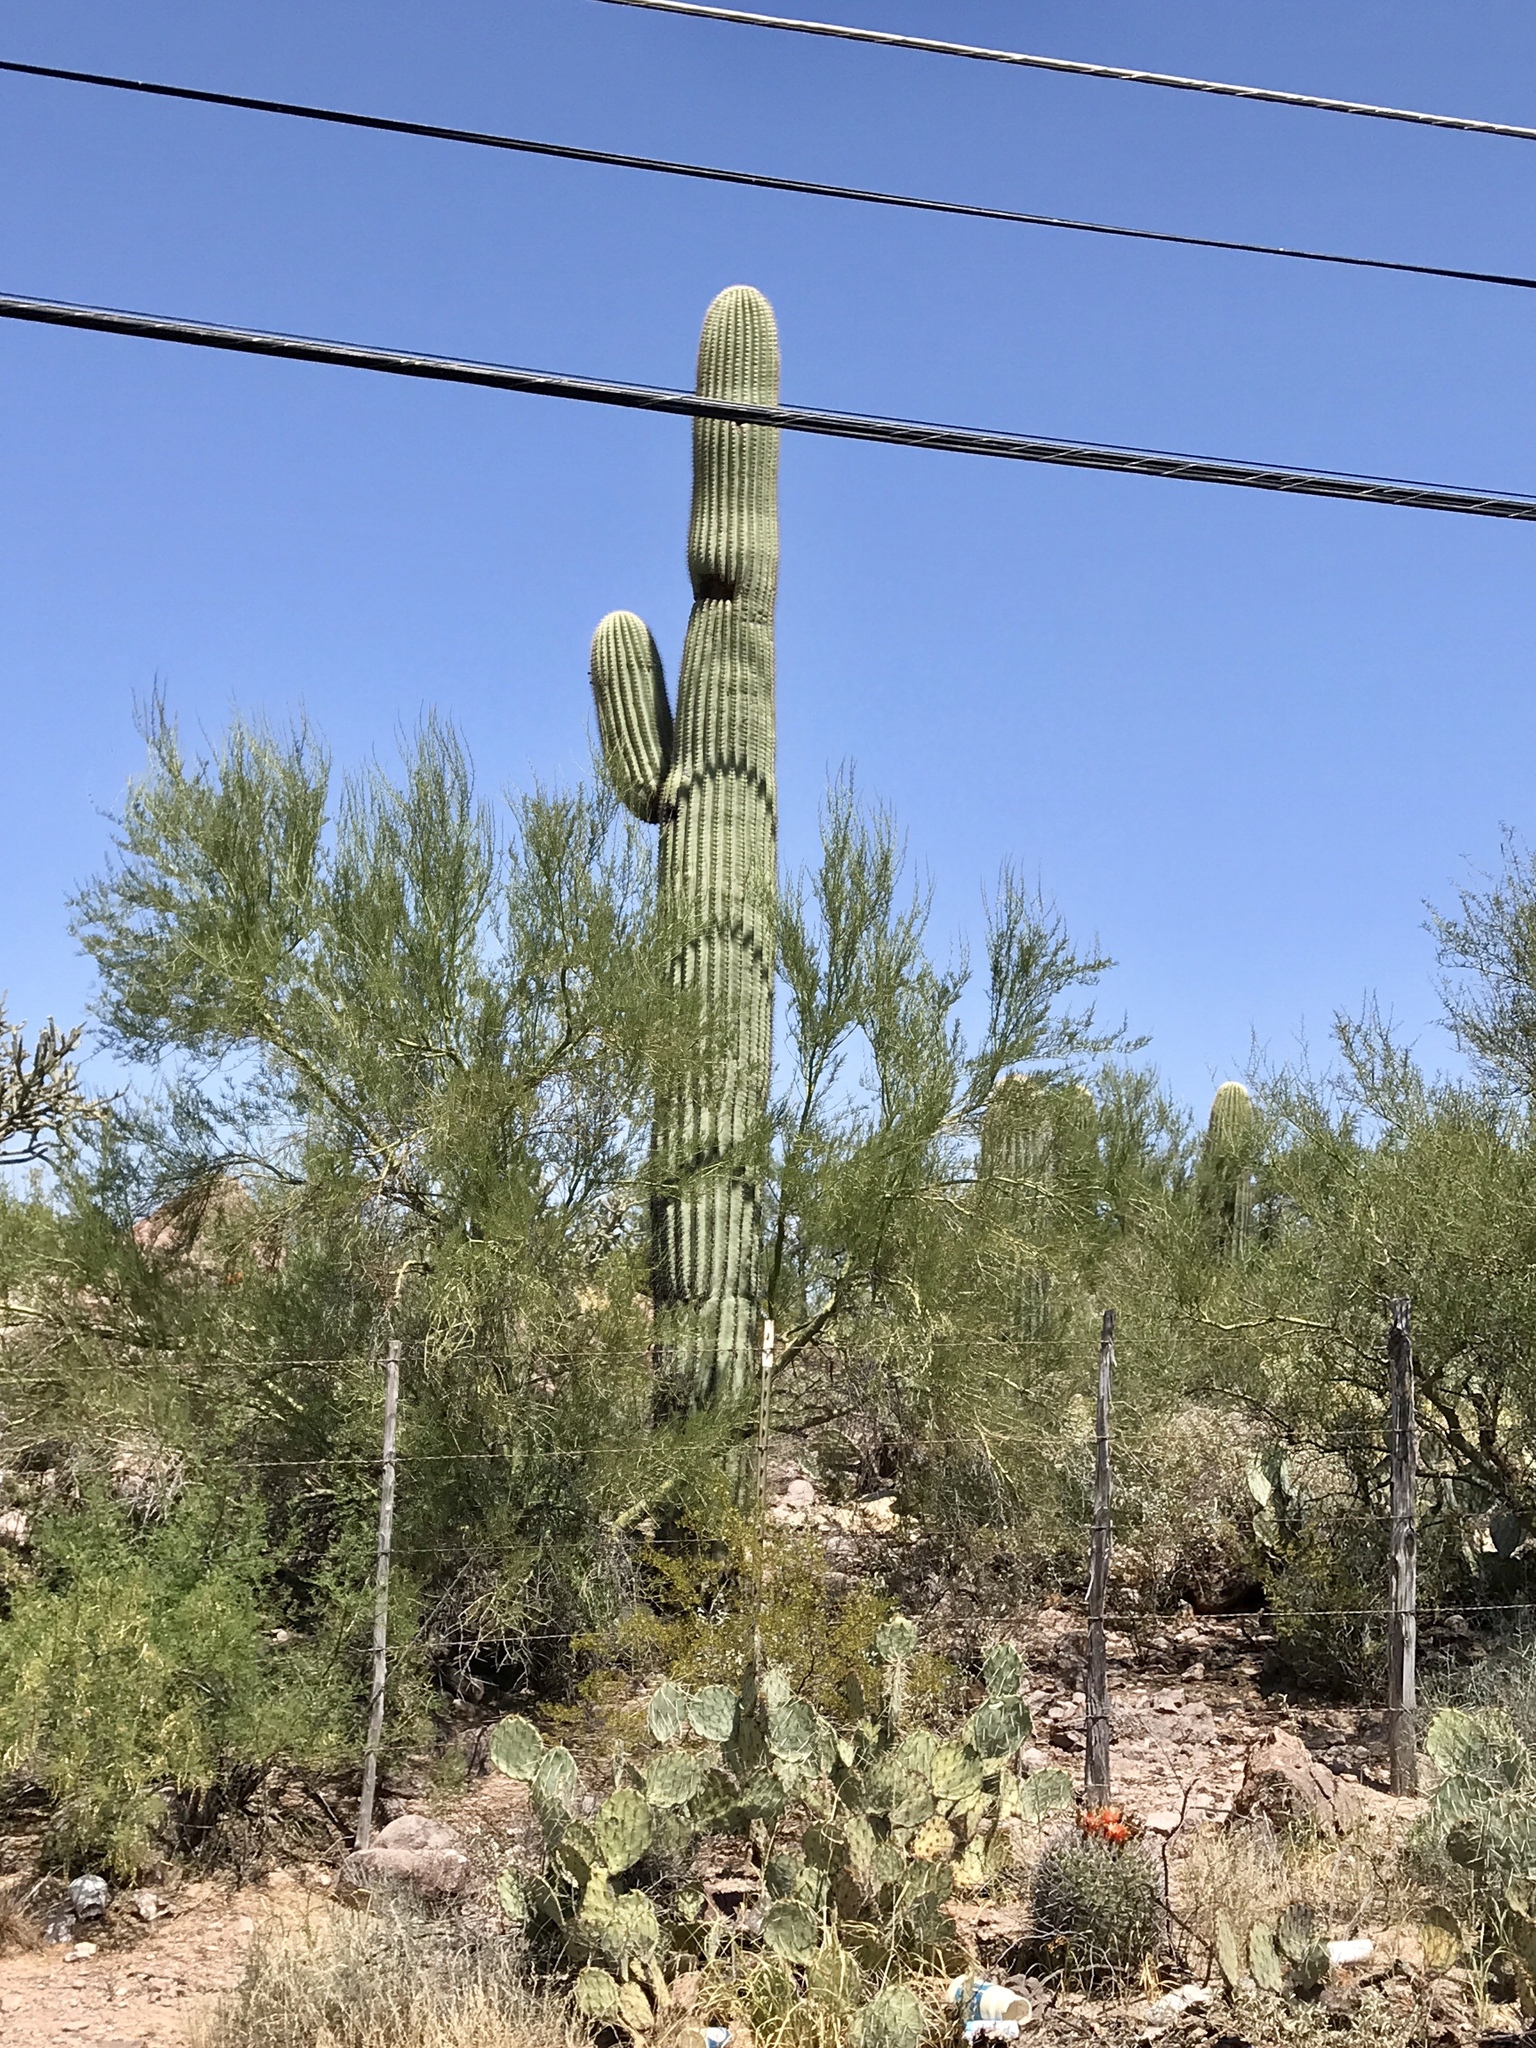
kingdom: Plantae
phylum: Tracheophyta
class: Magnoliopsida
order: Caryophyllales
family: Cactaceae
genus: Carnegiea
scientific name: Carnegiea gigantea
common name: Saguaro
